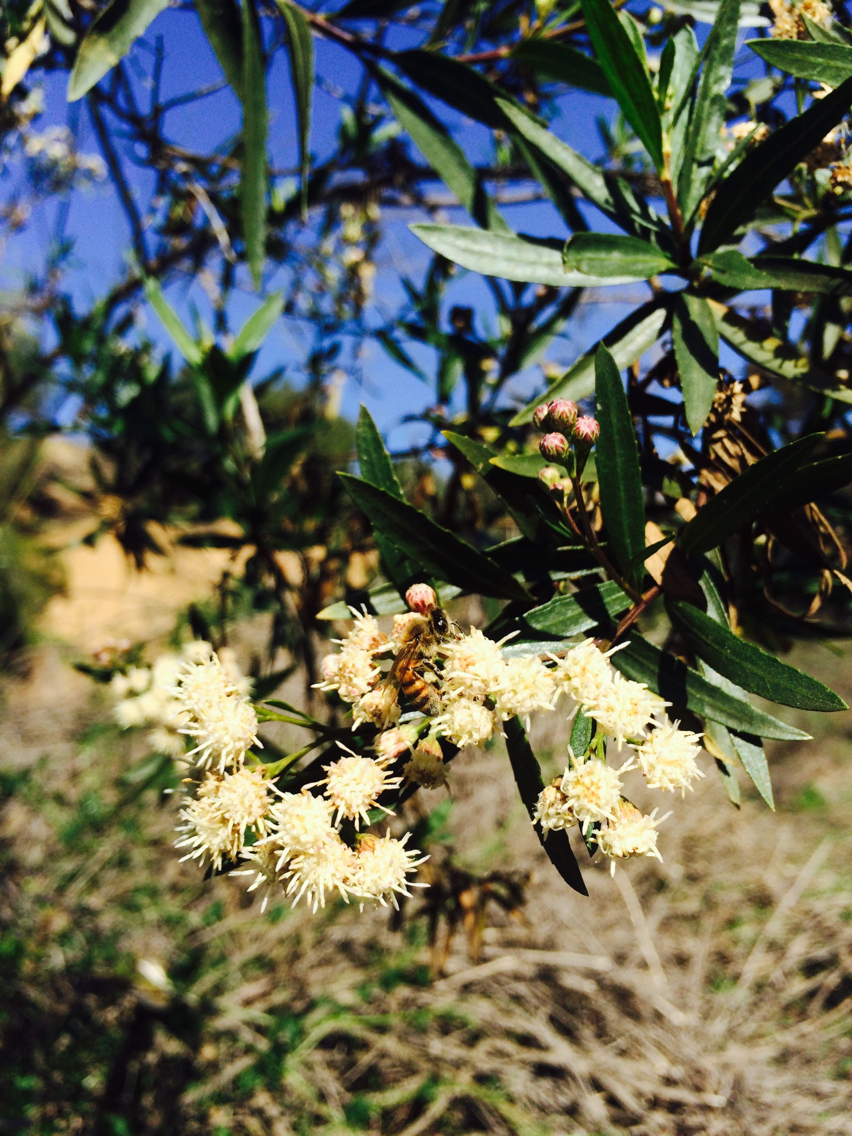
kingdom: Animalia
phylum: Arthropoda
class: Insecta
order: Hymenoptera
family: Apidae
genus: Apis
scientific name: Apis mellifera
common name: Honey bee
